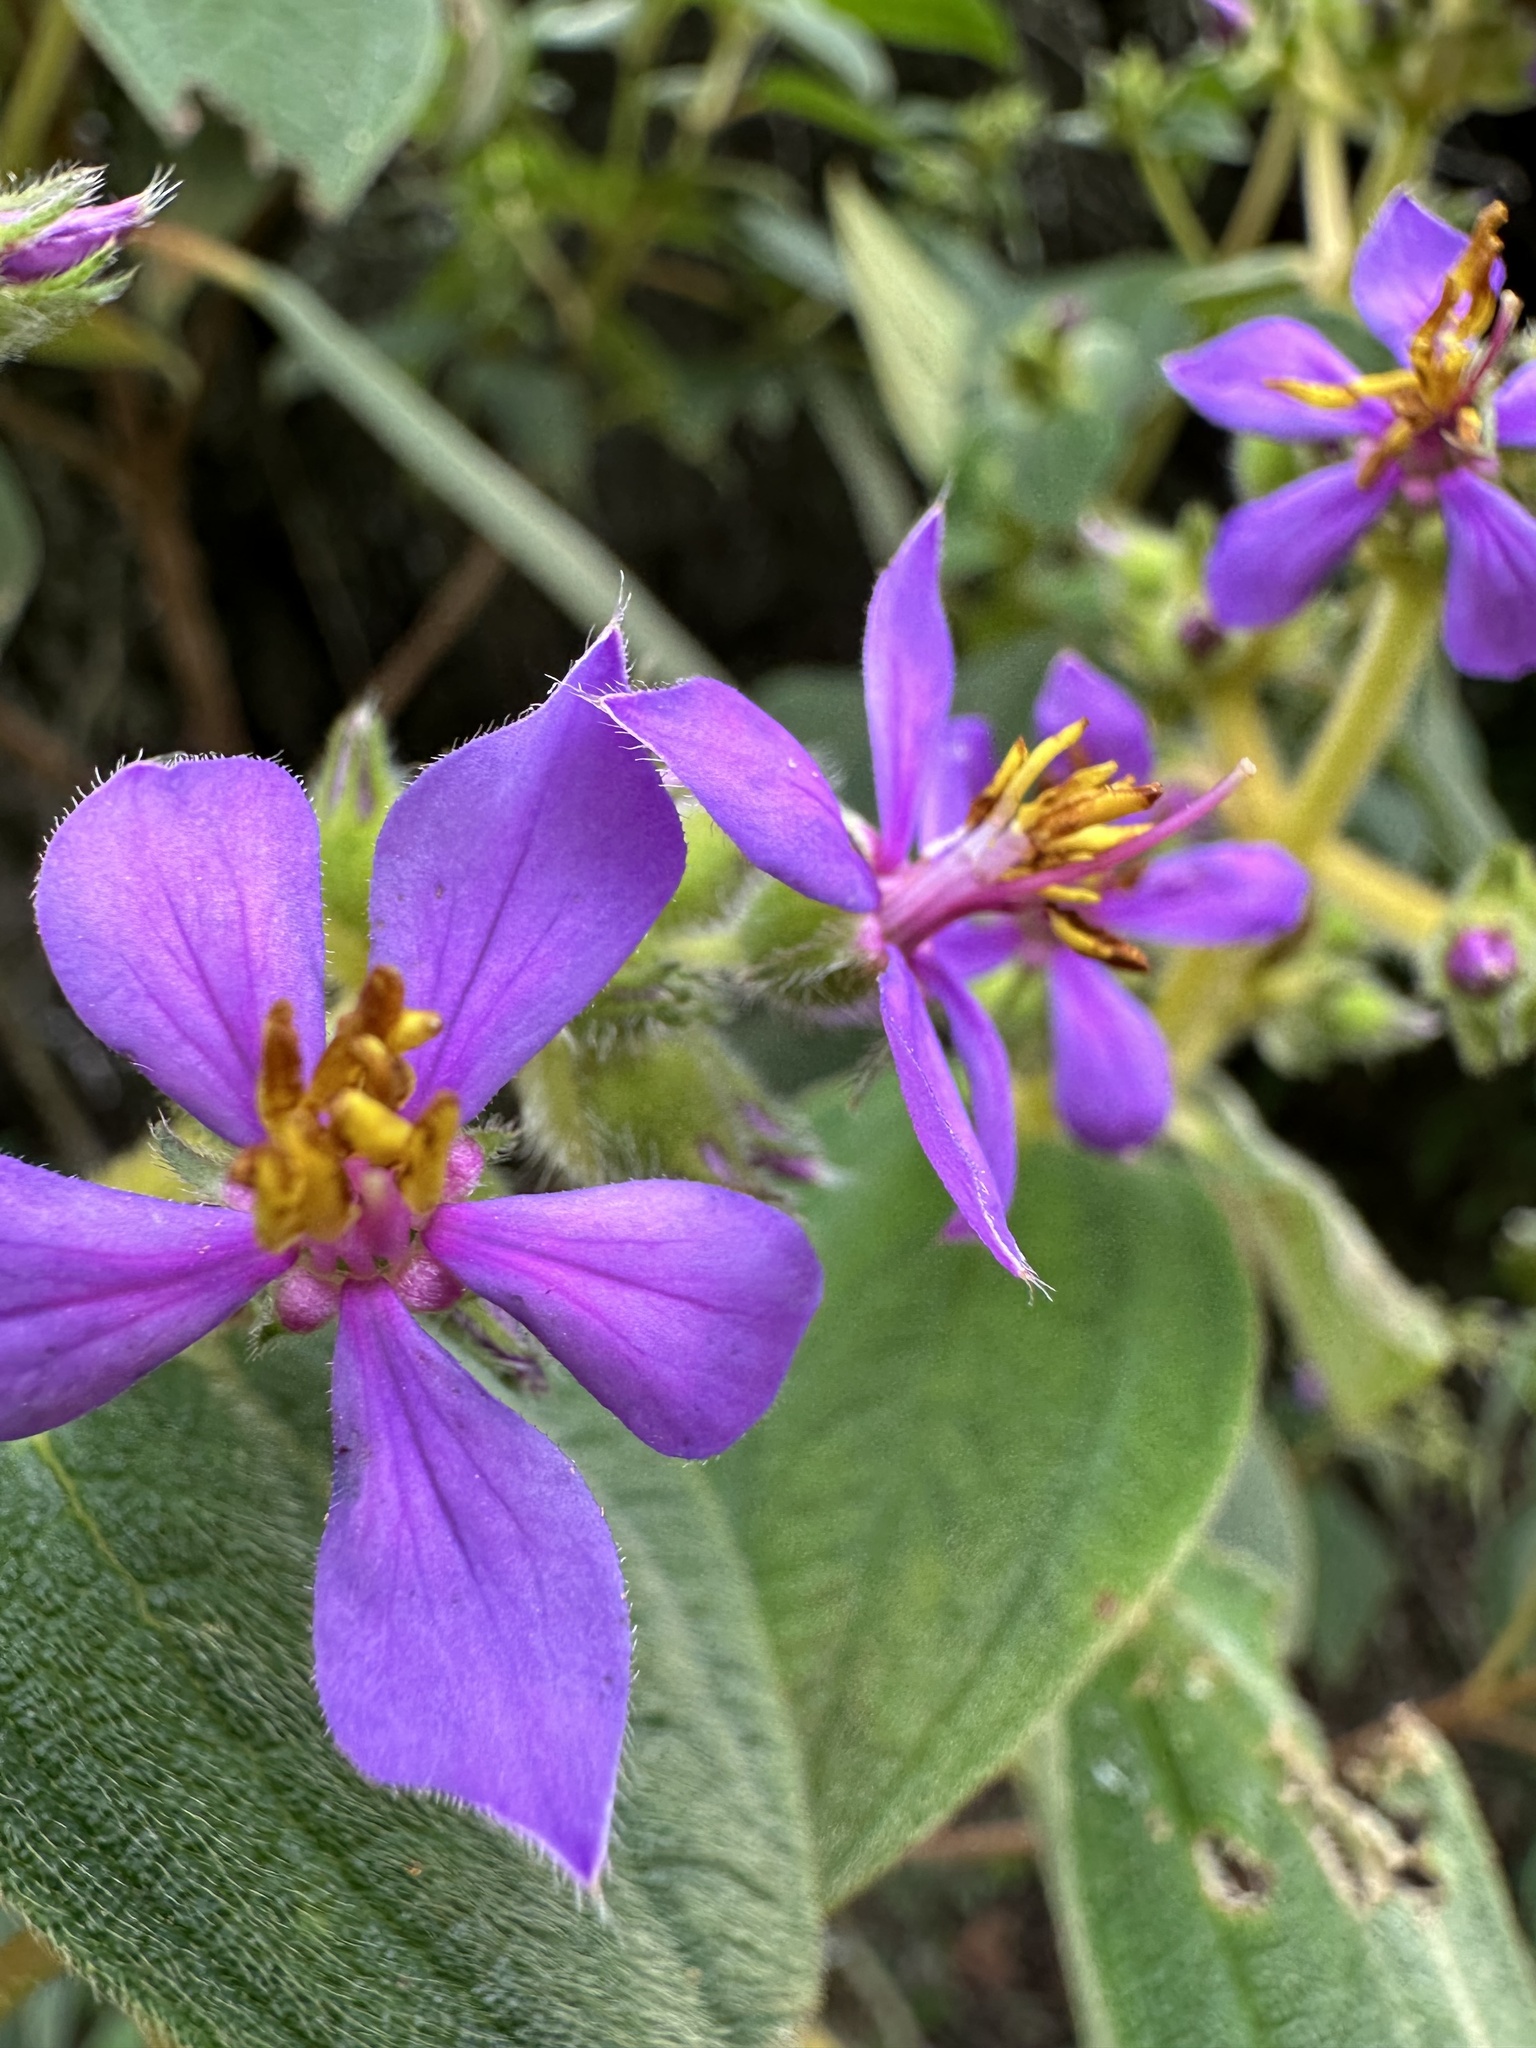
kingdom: Plantae
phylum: Tracheophyta
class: Magnoliopsida
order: Myrtales
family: Melastomataceae
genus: Chaetogastra
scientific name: Chaetogastra mollis
